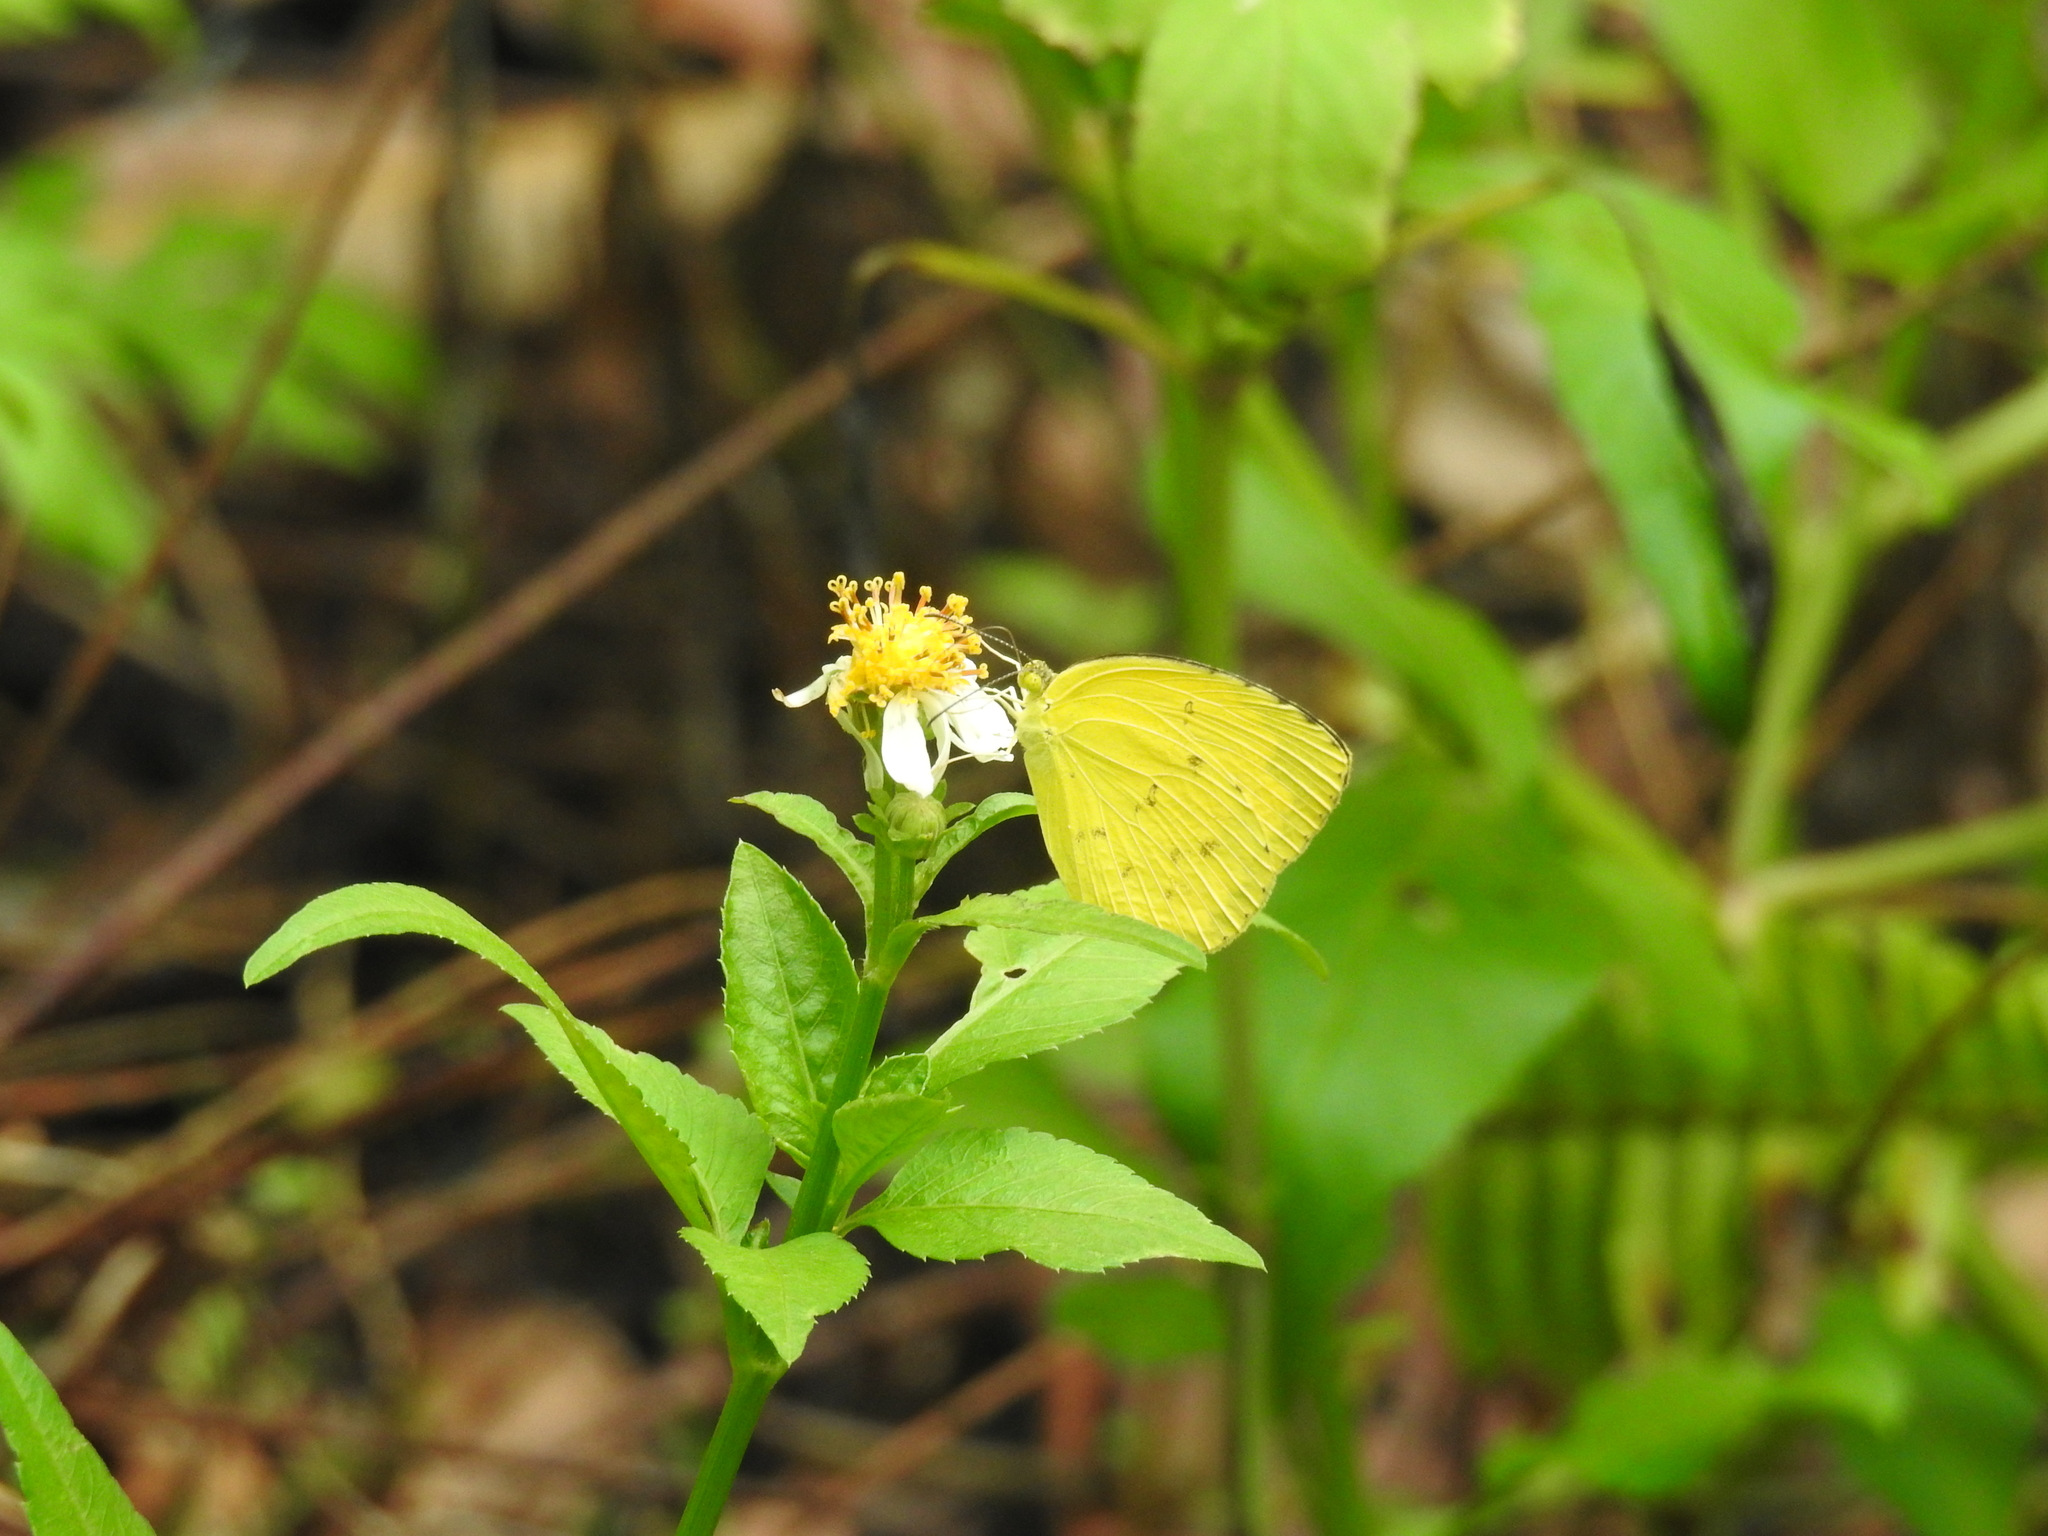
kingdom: Animalia
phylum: Arthropoda
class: Insecta
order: Lepidoptera
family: Pieridae
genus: Eurema
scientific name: Eurema hecabe
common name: Pale grass yellow
